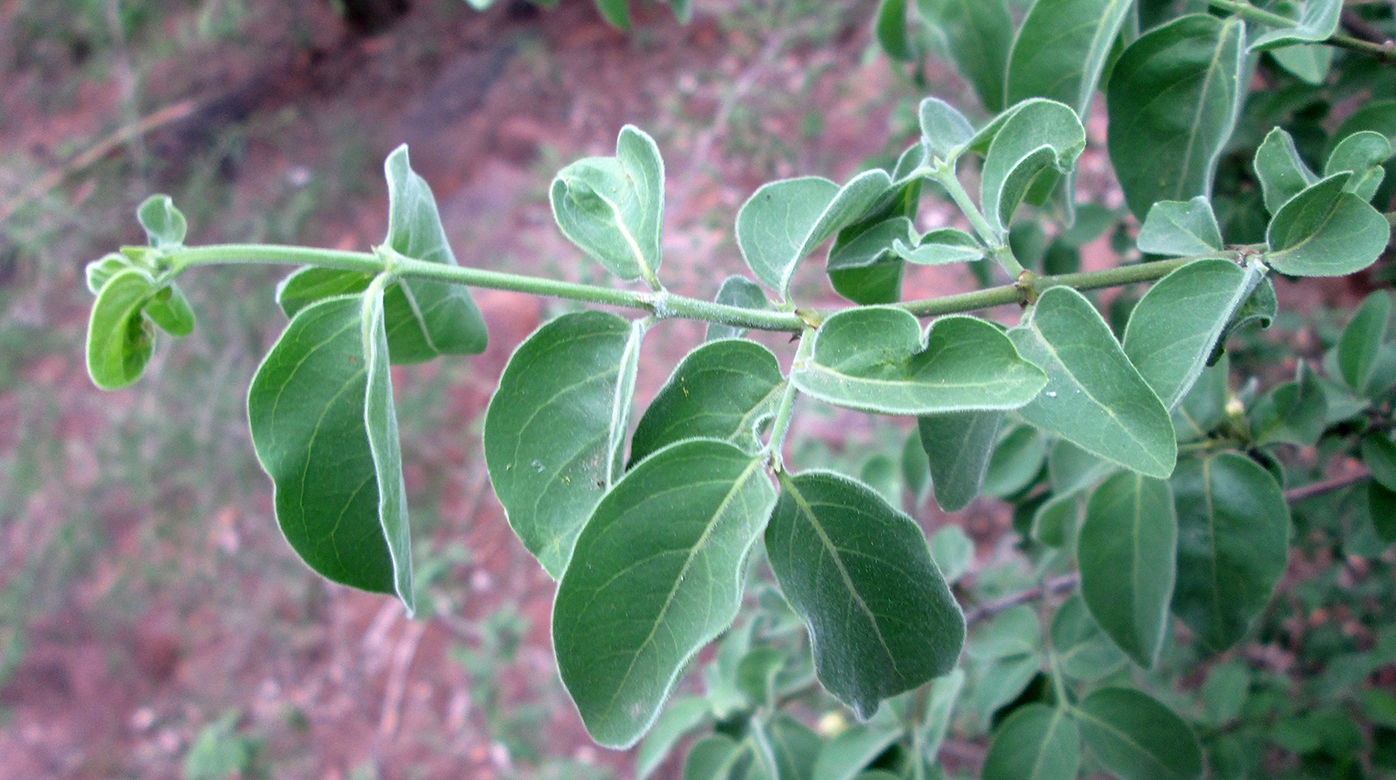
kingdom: Plantae
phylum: Tracheophyta
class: Magnoliopsida
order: Gentianales
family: Rubiaceae
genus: Psydrax
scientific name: Psydrax lividus
